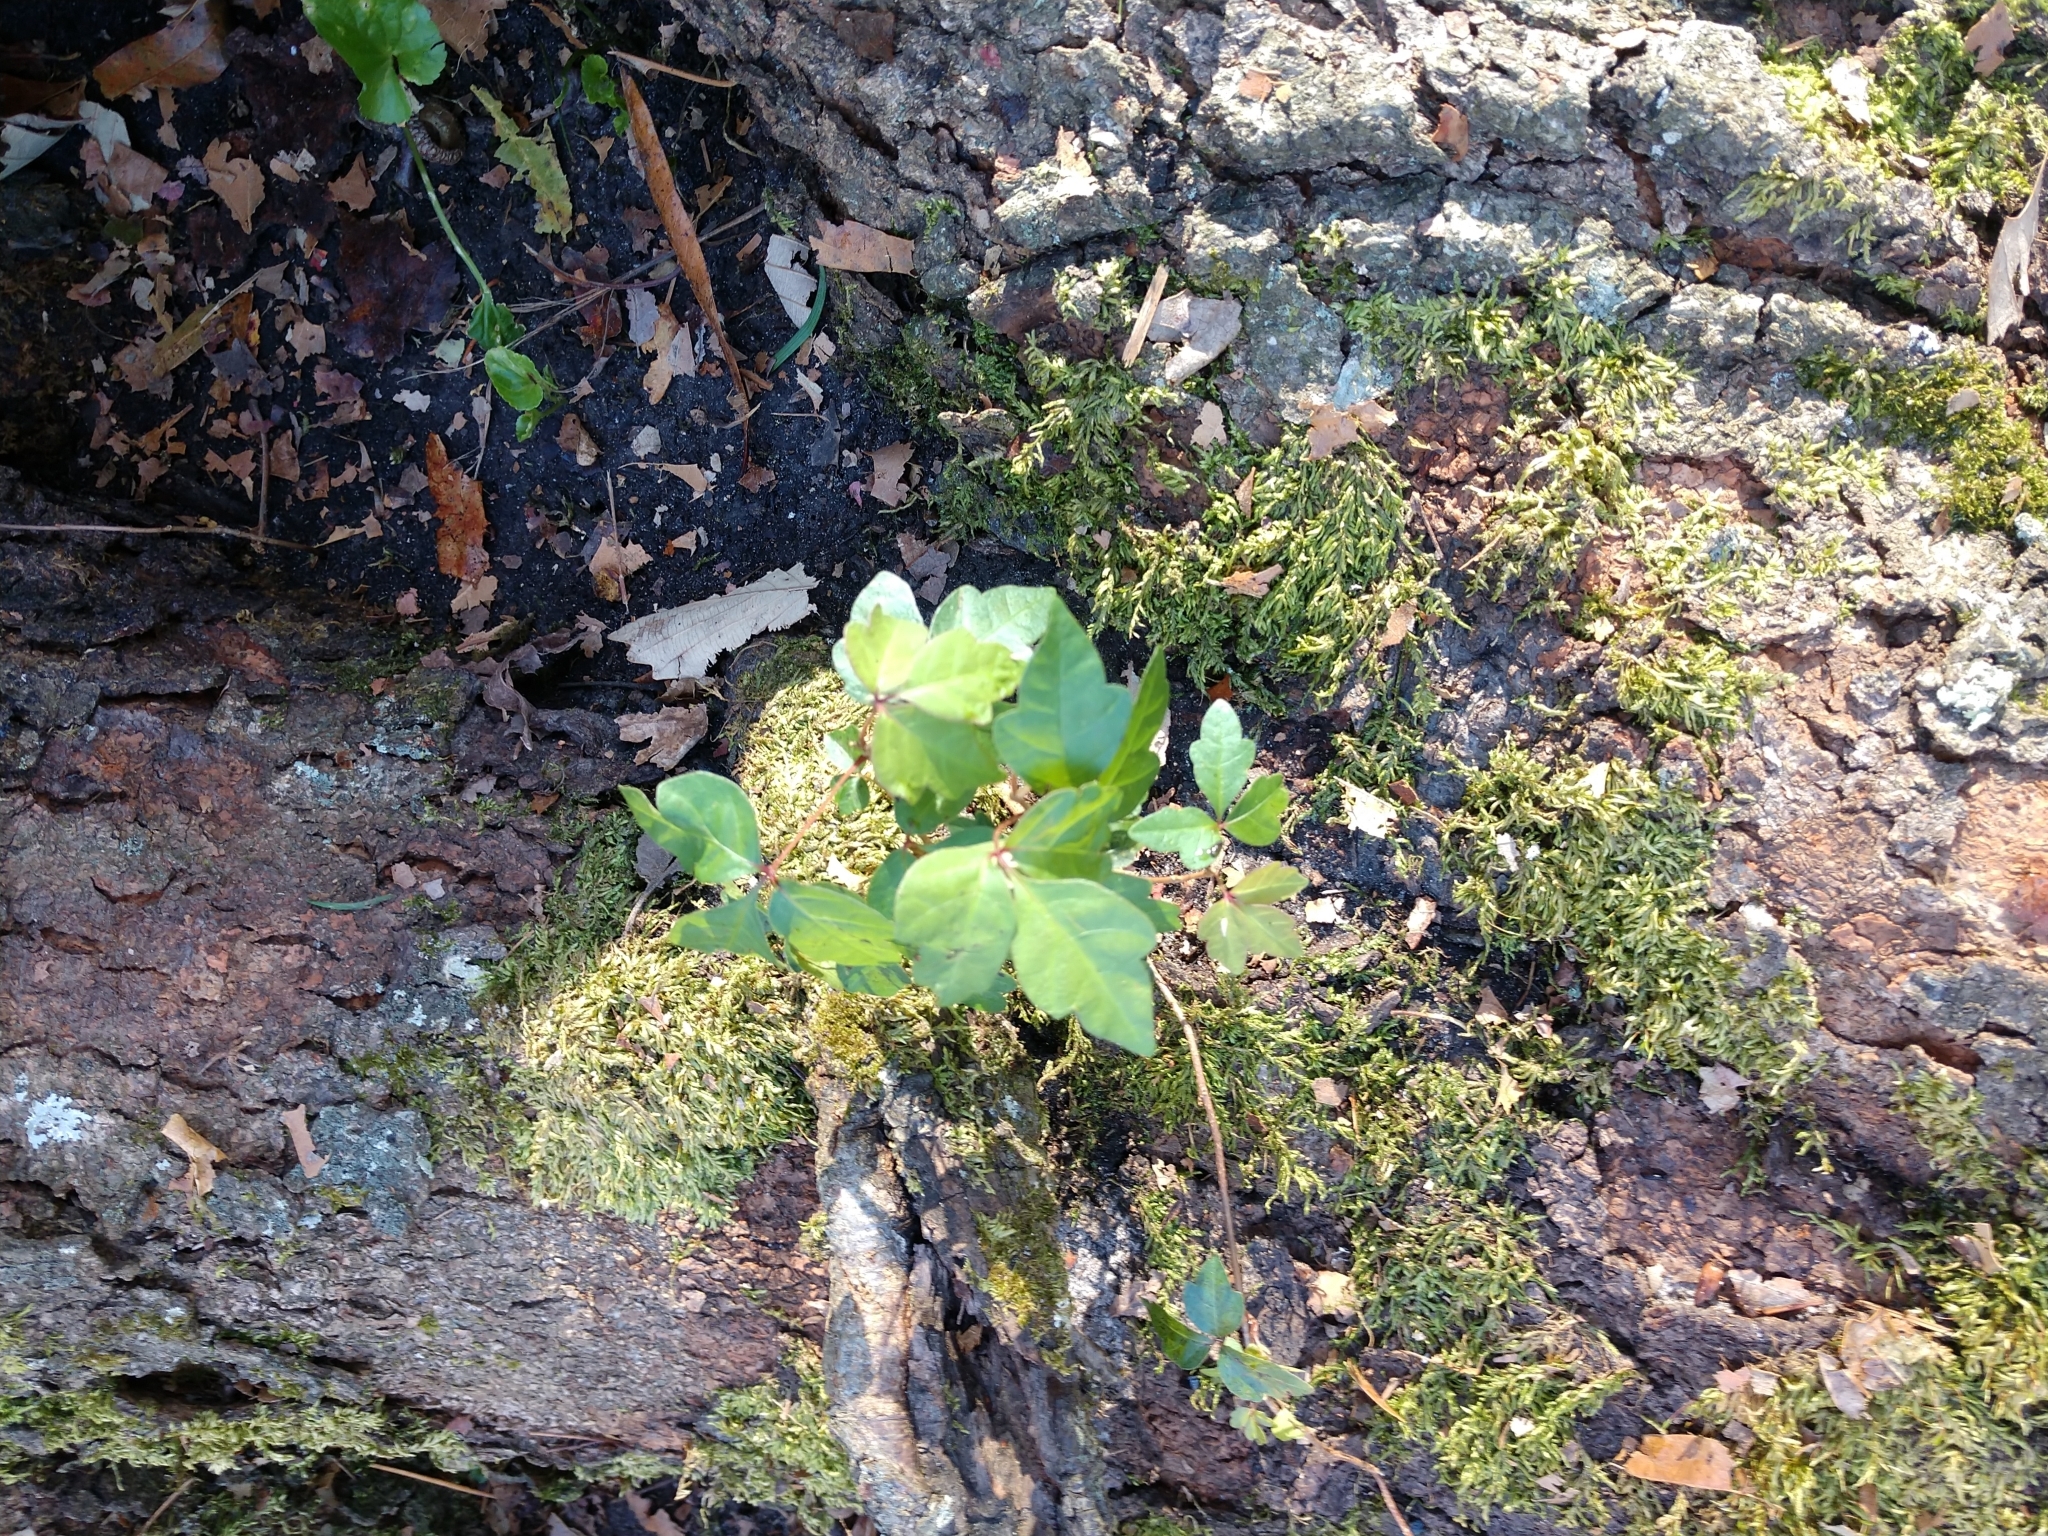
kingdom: Plantae
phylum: Tracheophyta
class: Magnoliopsida
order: Sapindales
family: Anacardiaceae
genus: Toxicodendron
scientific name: Toxicodendron radicans
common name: Poison ivy
